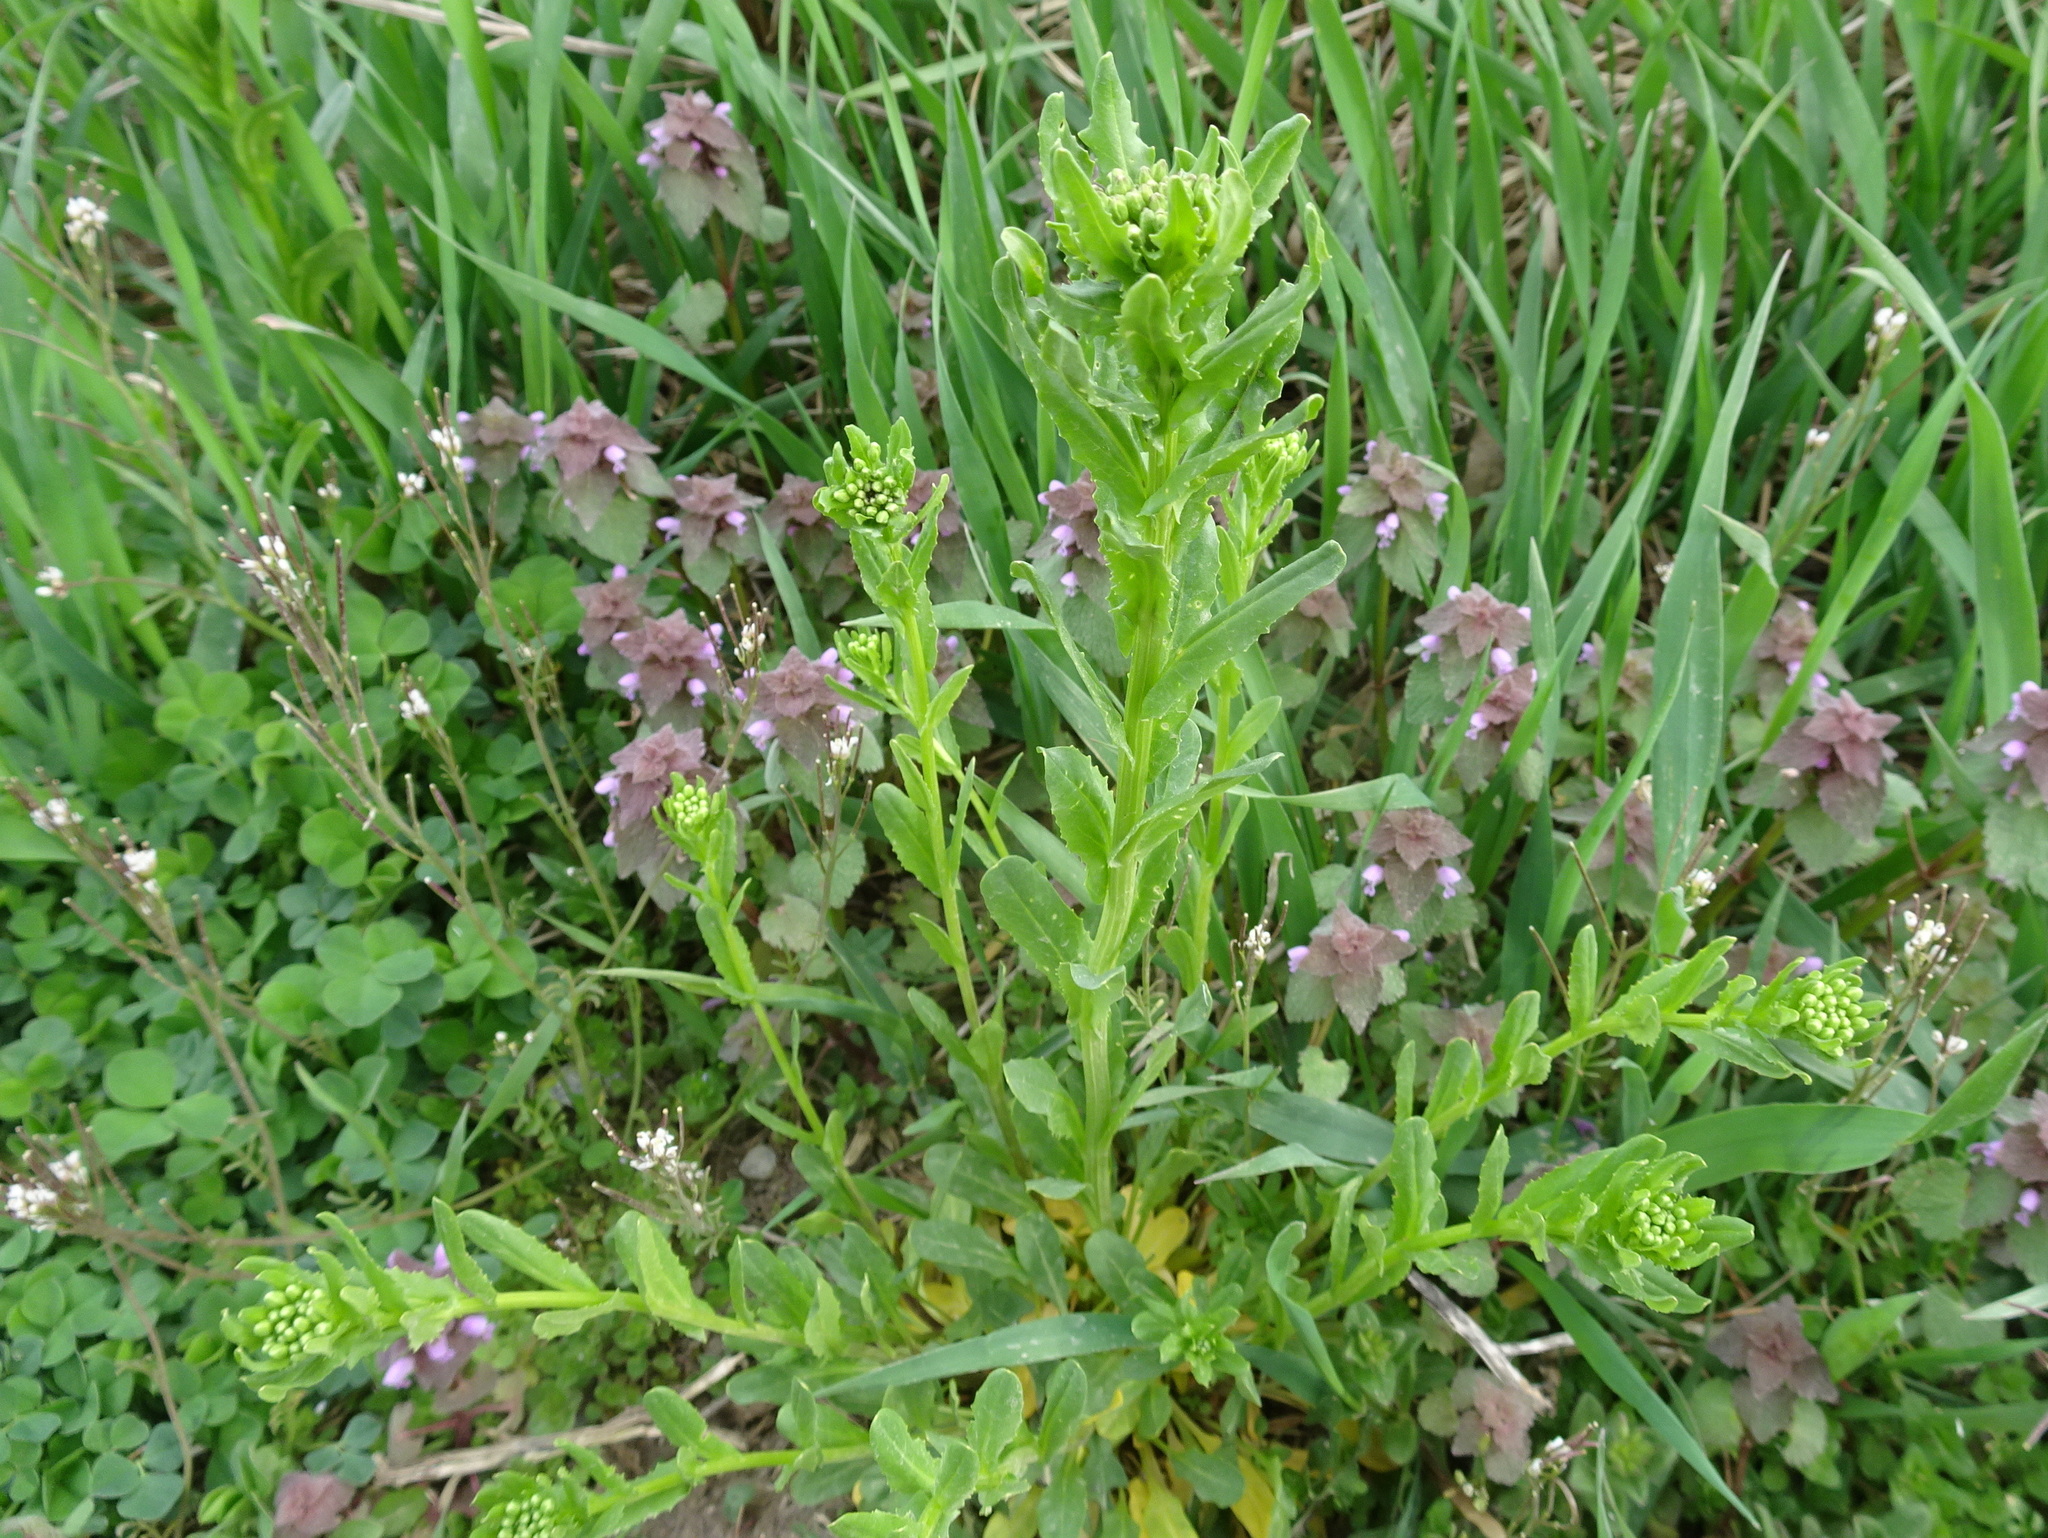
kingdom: Plantae
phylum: Tracheophyta
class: Magnoliopsida
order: Brassicales
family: Brassicaceae
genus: Thlaspi
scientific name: Thlaspi arvense
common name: Field pennycress
